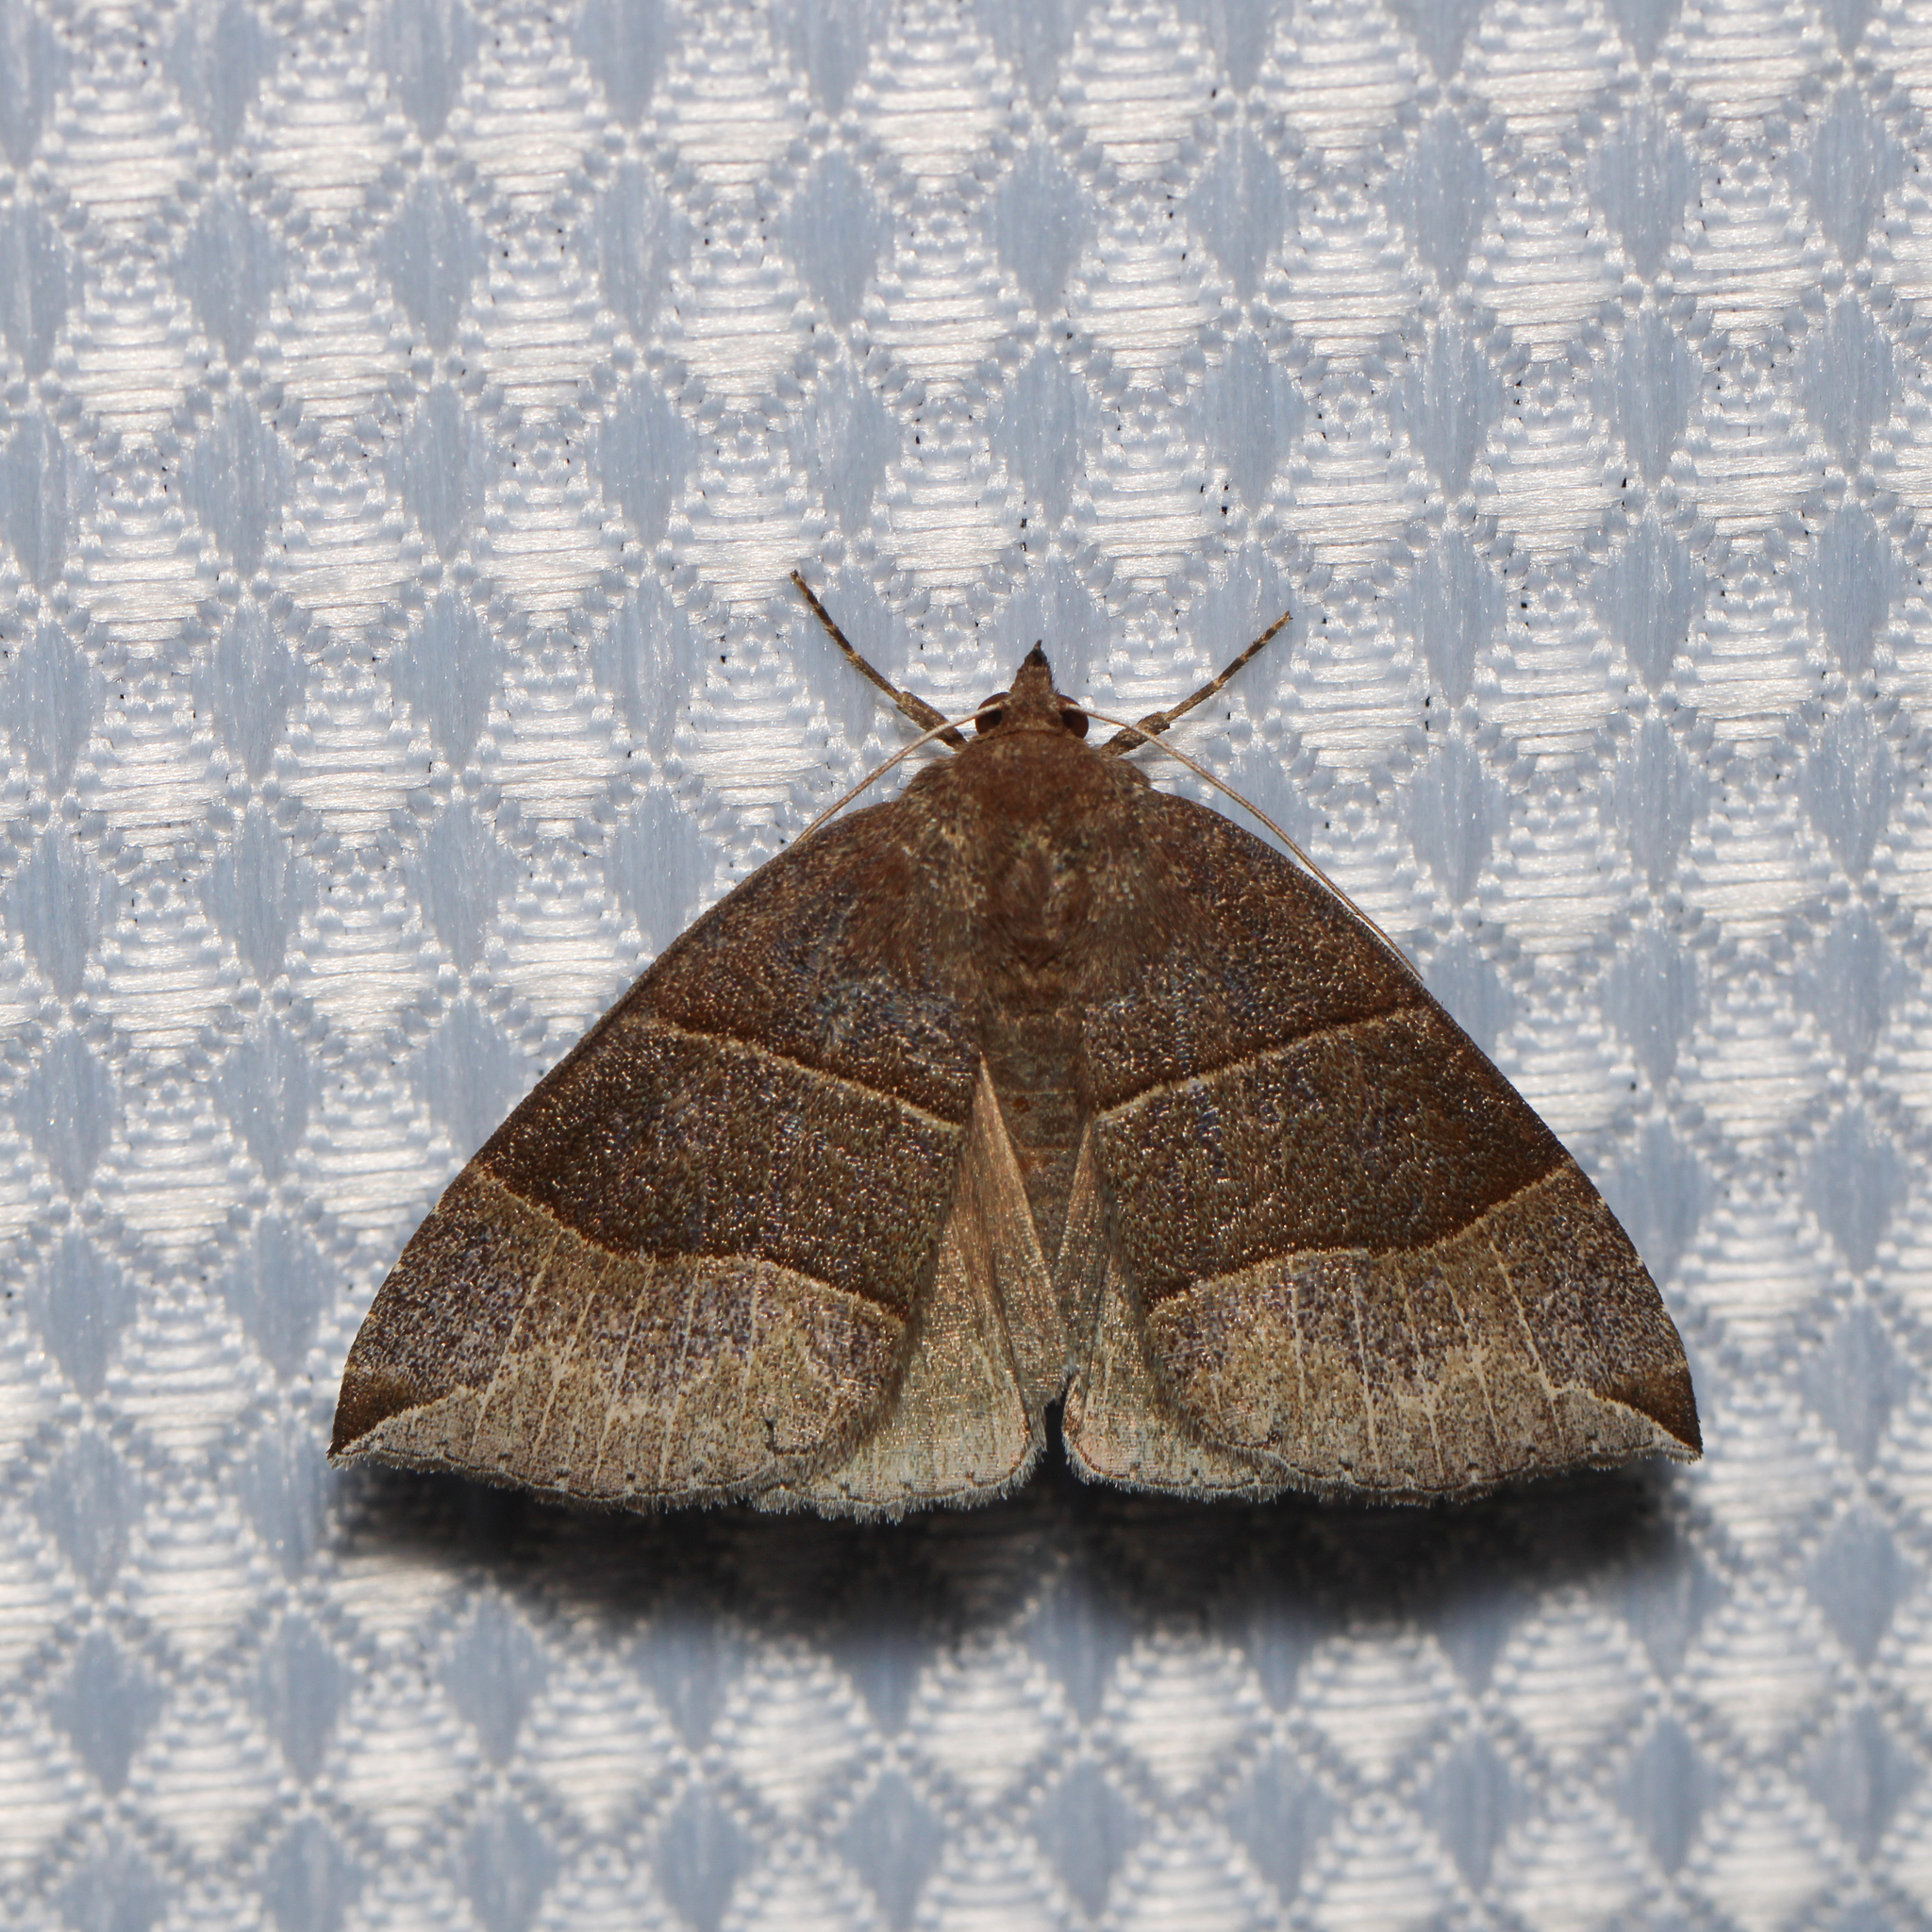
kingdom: Animalia
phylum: Arthropoda
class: Insecta
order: Lepidoptera
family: Erebidae
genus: Parallelia
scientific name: Parallelia bistriaris
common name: Maple looper moth
